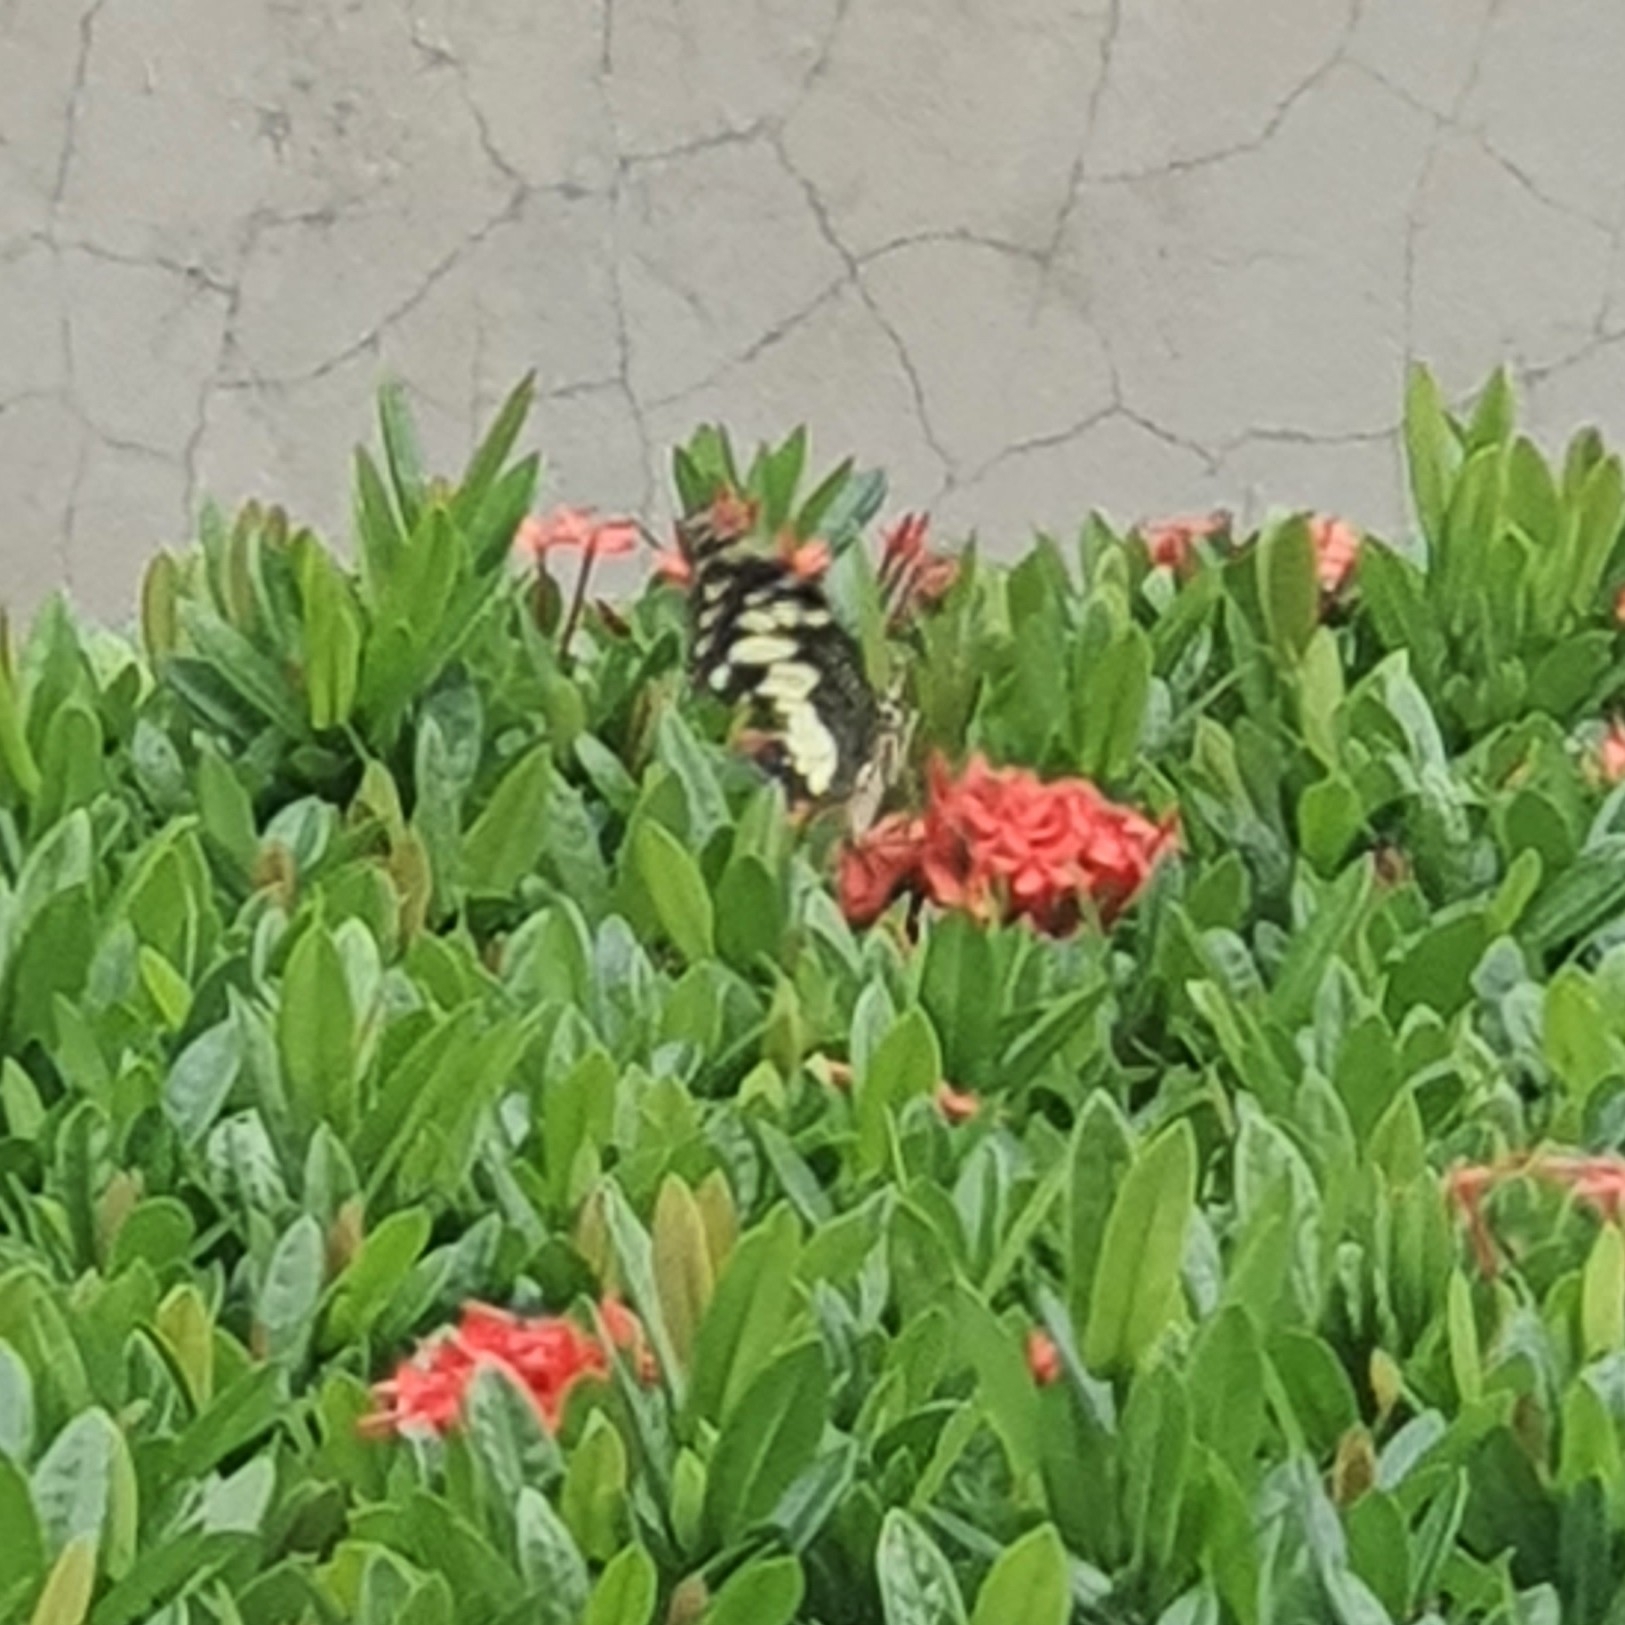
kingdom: Animalia
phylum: Arthropoda
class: Insecta
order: Lepidoptera
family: Papilionidae
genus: Papilio
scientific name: Papilio demoleus
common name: Lime butterfly
